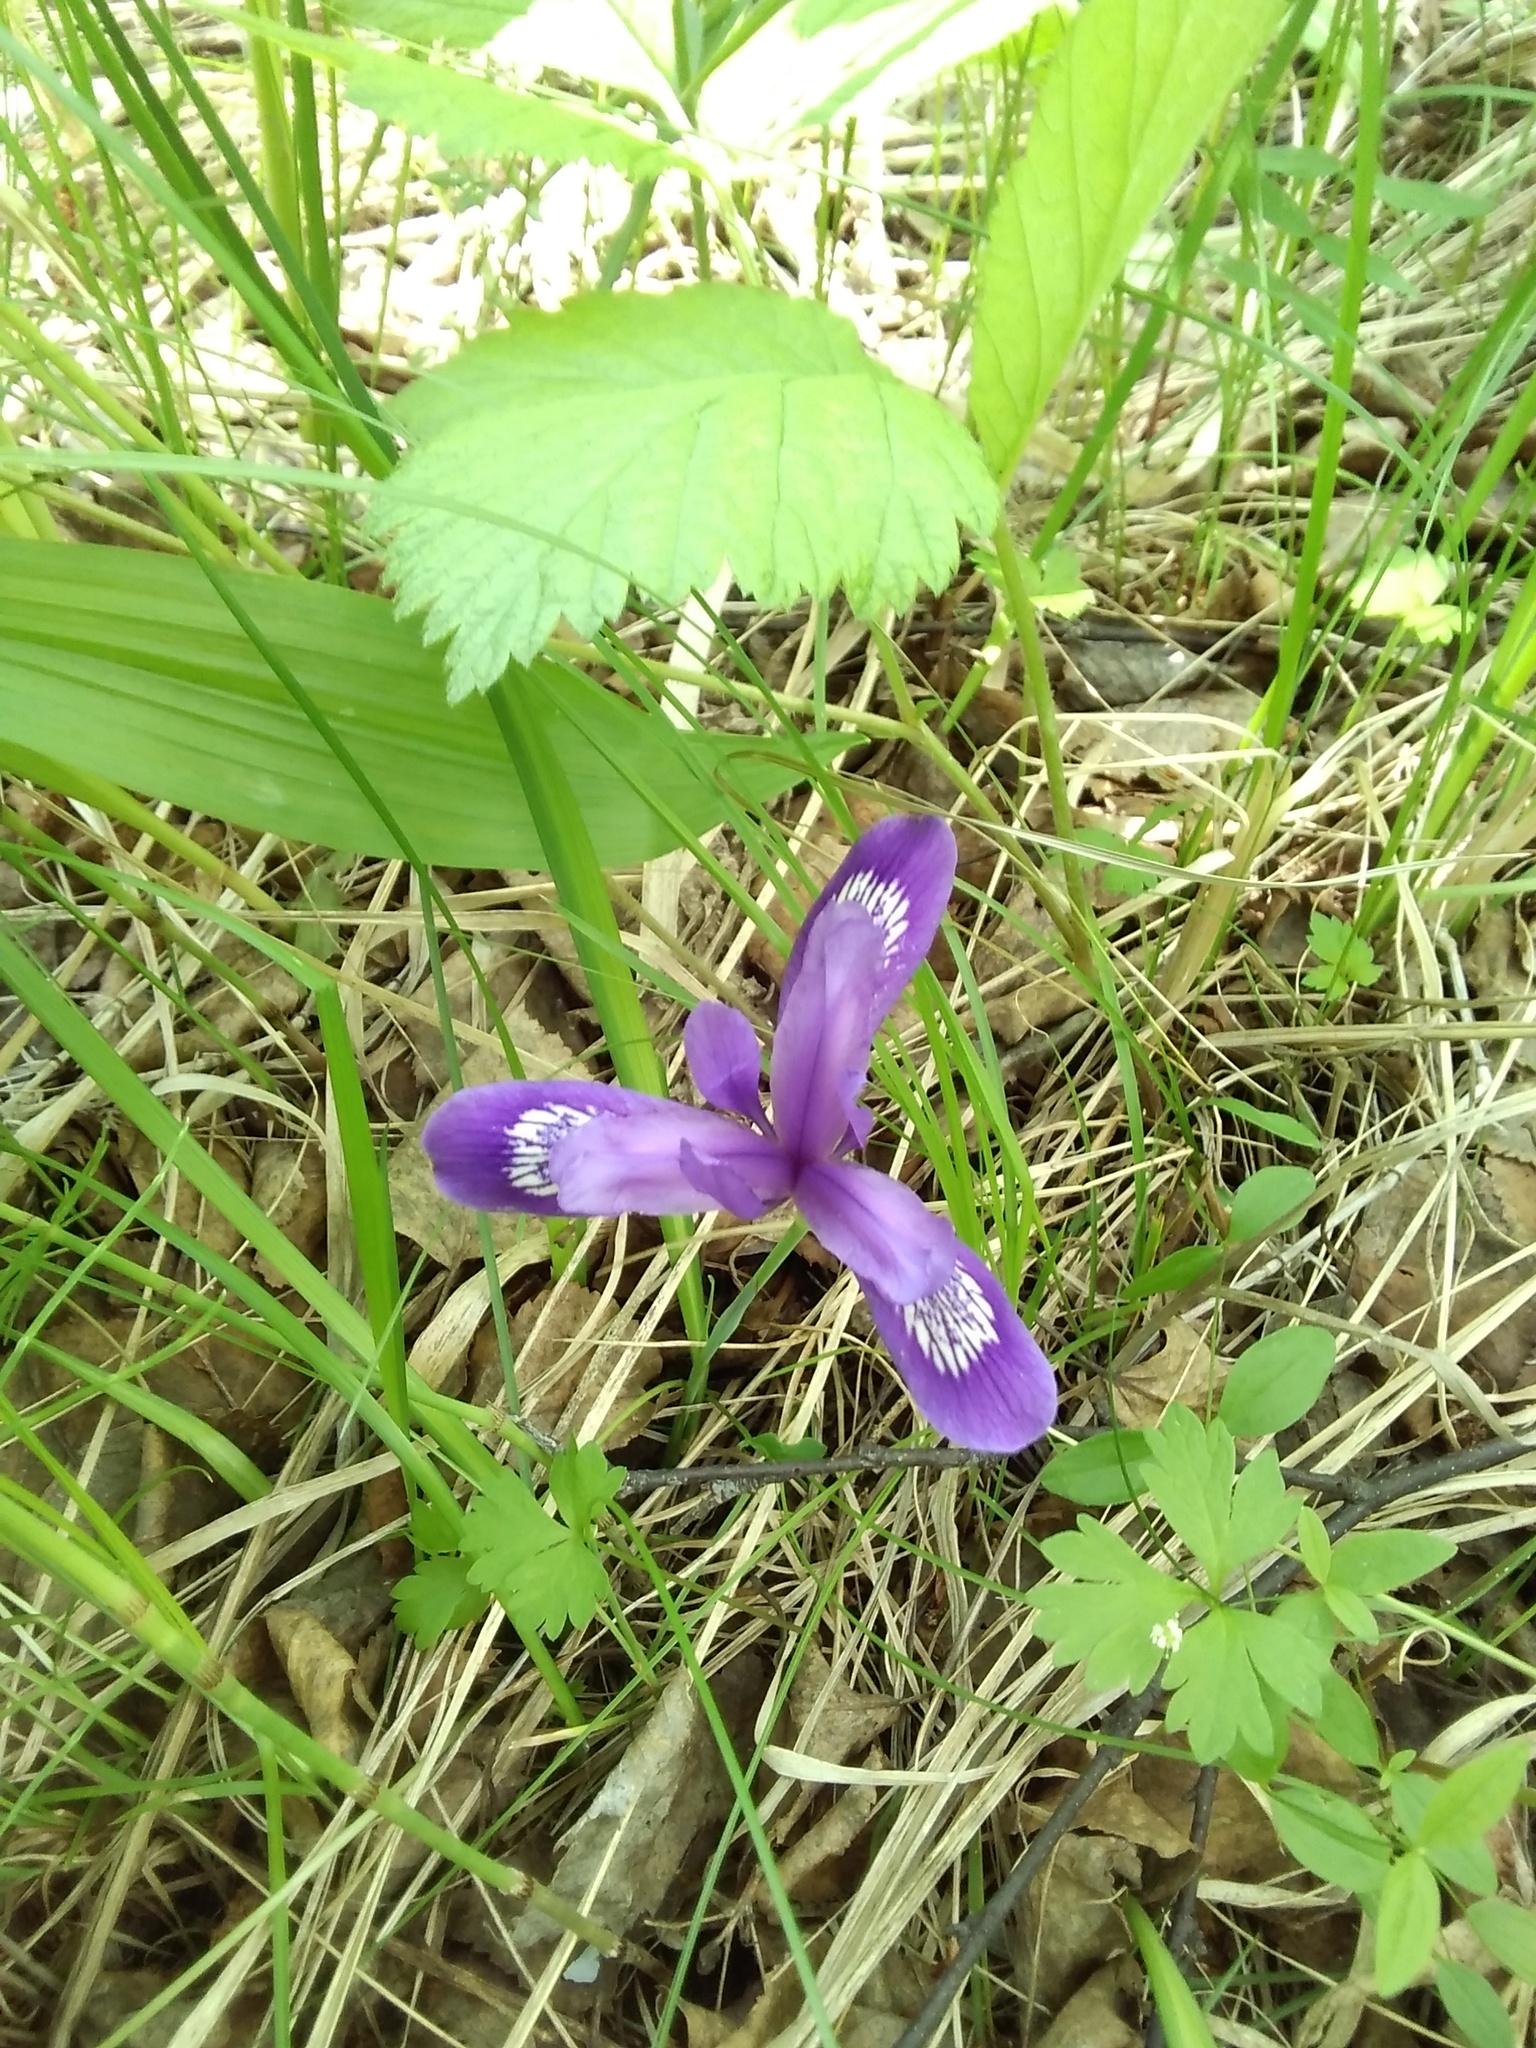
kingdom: Plantae
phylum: Tracheophyta
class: Liliopsida
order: Asparagales
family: Iridaceae
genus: Iris
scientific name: Iris ruthenica
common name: Purple-bract iris
